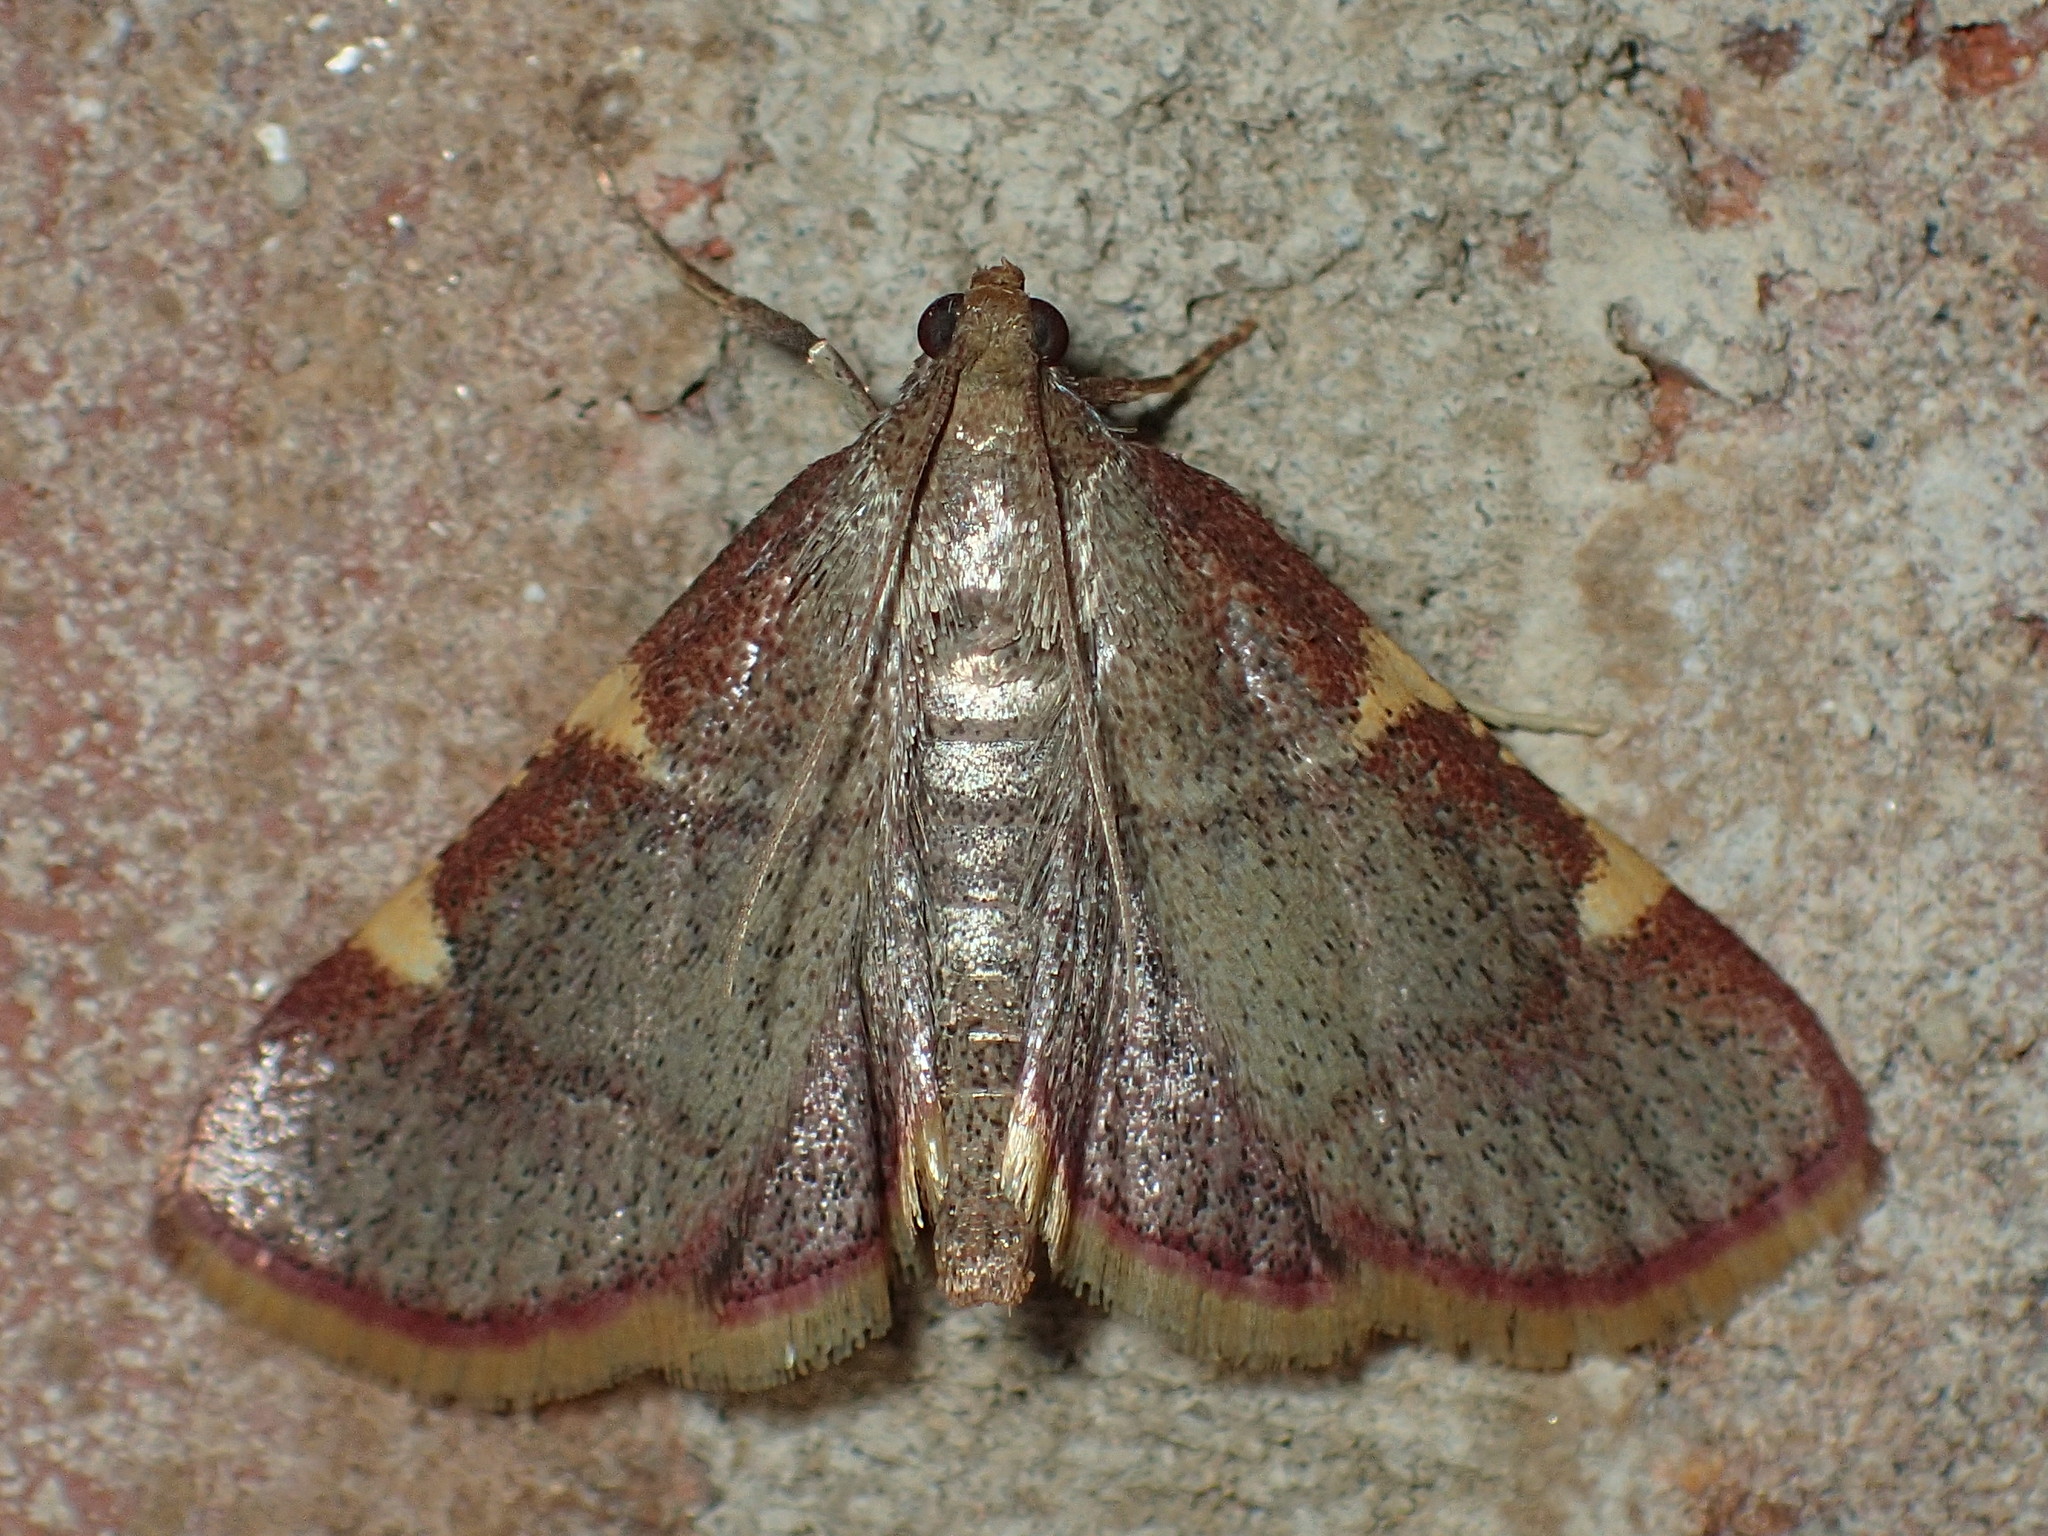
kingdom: Animalia
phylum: Arthropoda
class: Insecta
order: Lepidoptera
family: Pyralidae
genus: Hypsopygia
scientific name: Hypsopygia olinalis
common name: Yellow-fringed dolichomia moth
